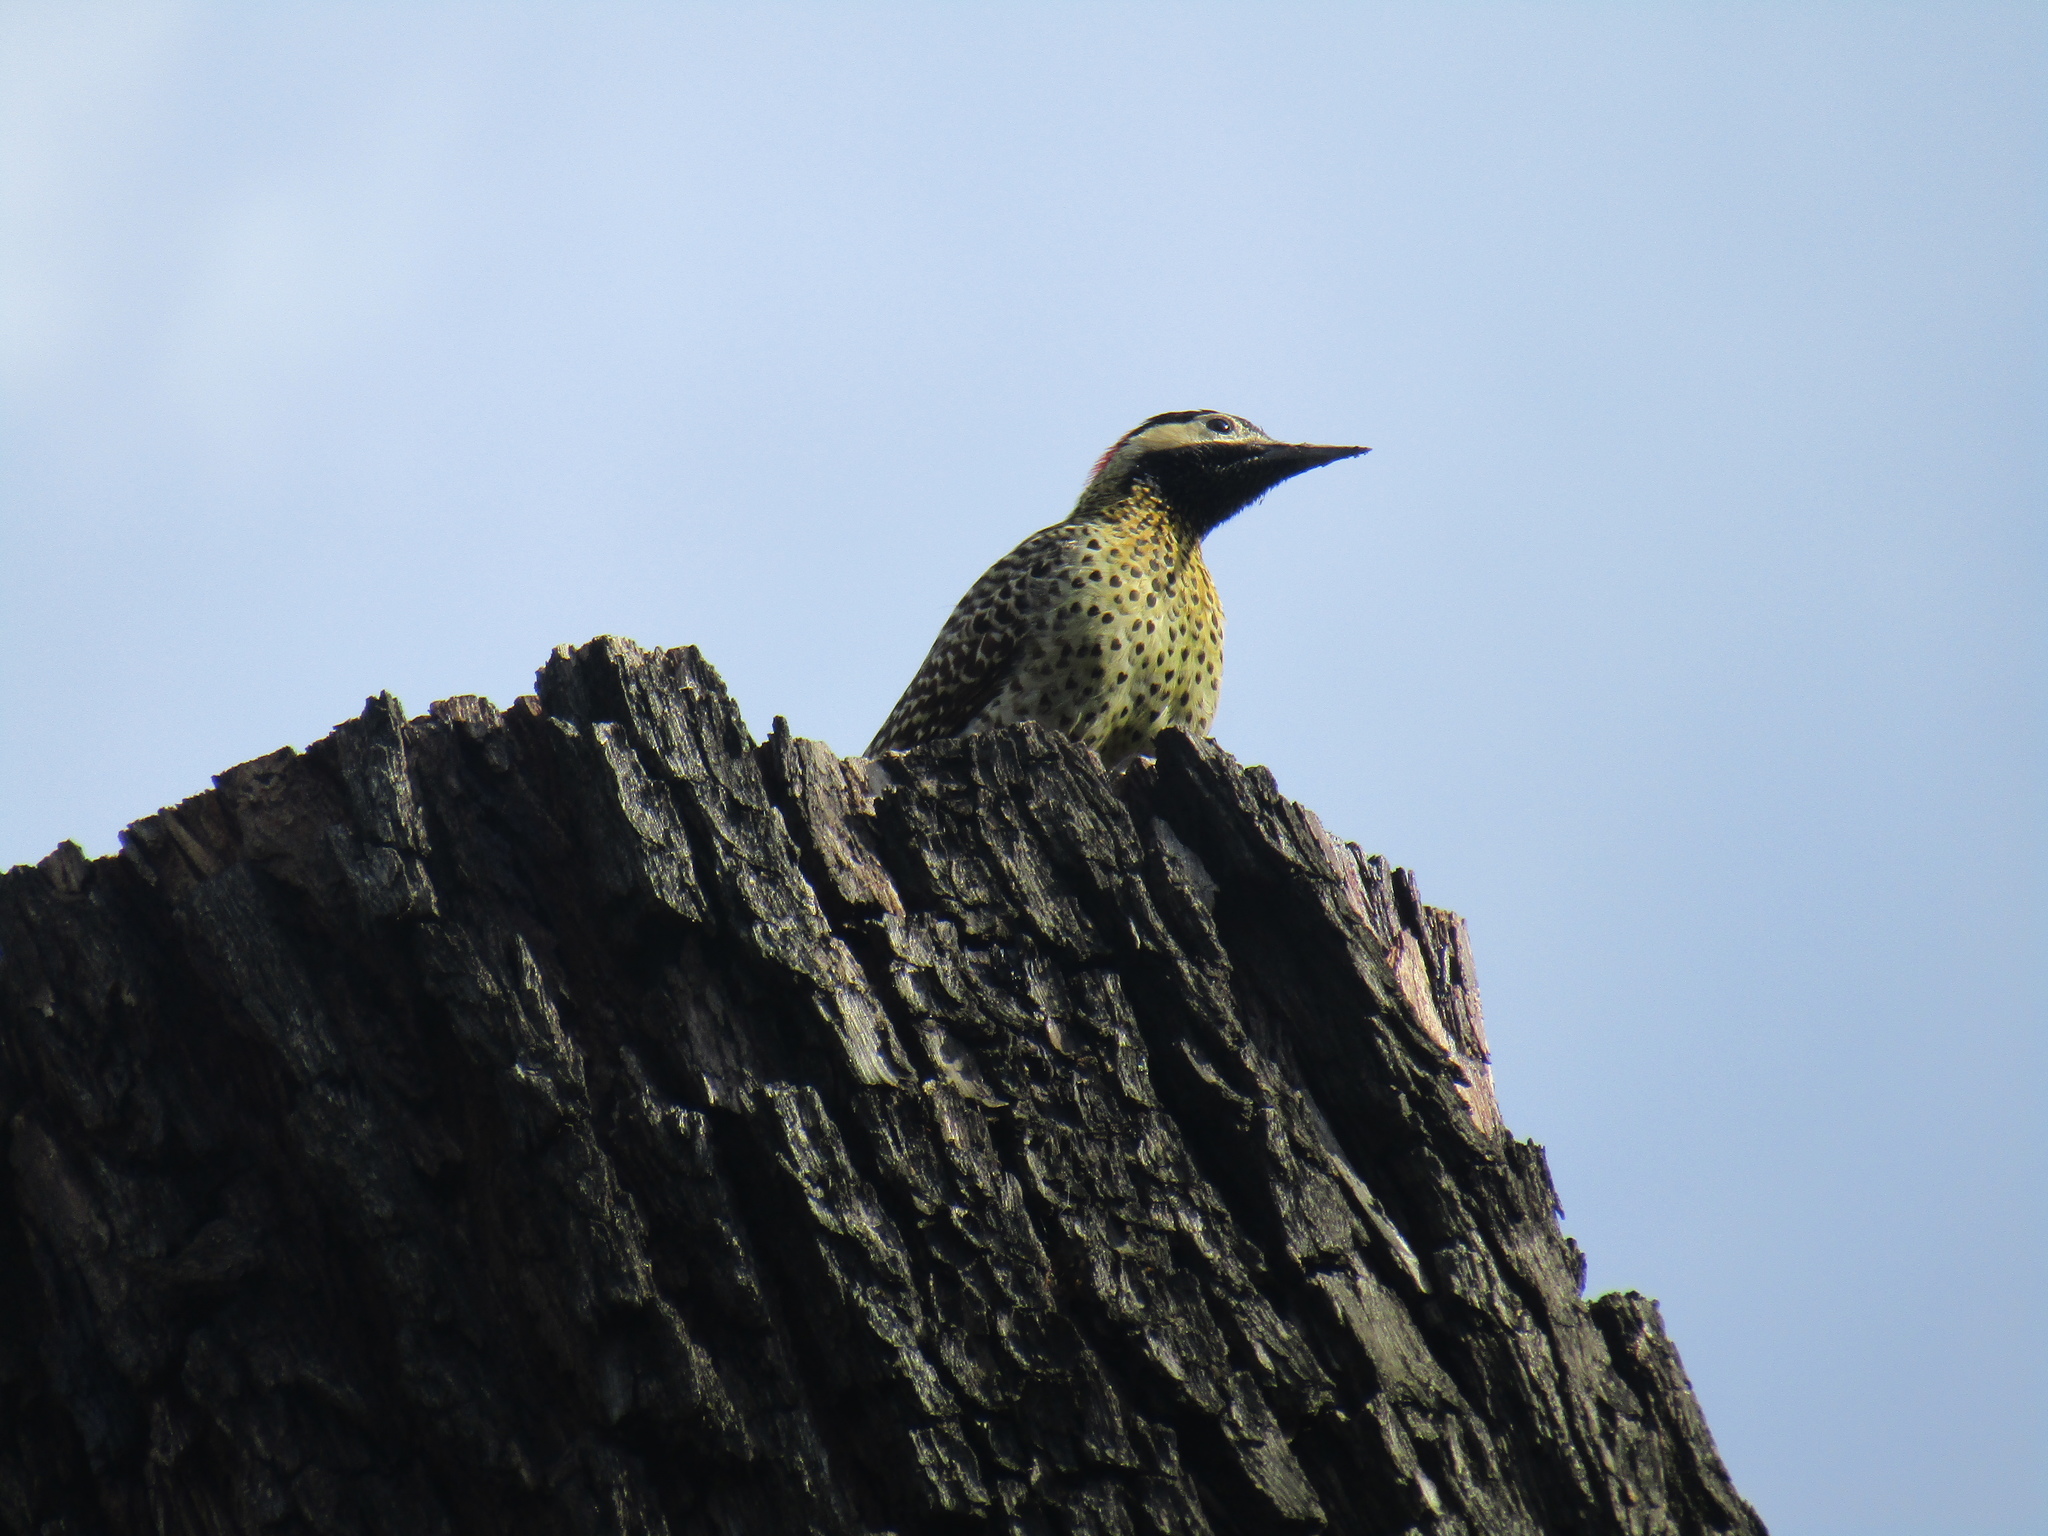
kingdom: Animalia
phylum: Chordata
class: Aves
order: Piciformes
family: Picidae
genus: Colaptes
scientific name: Colaptes melanochloros
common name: Green-barred woodpecker
